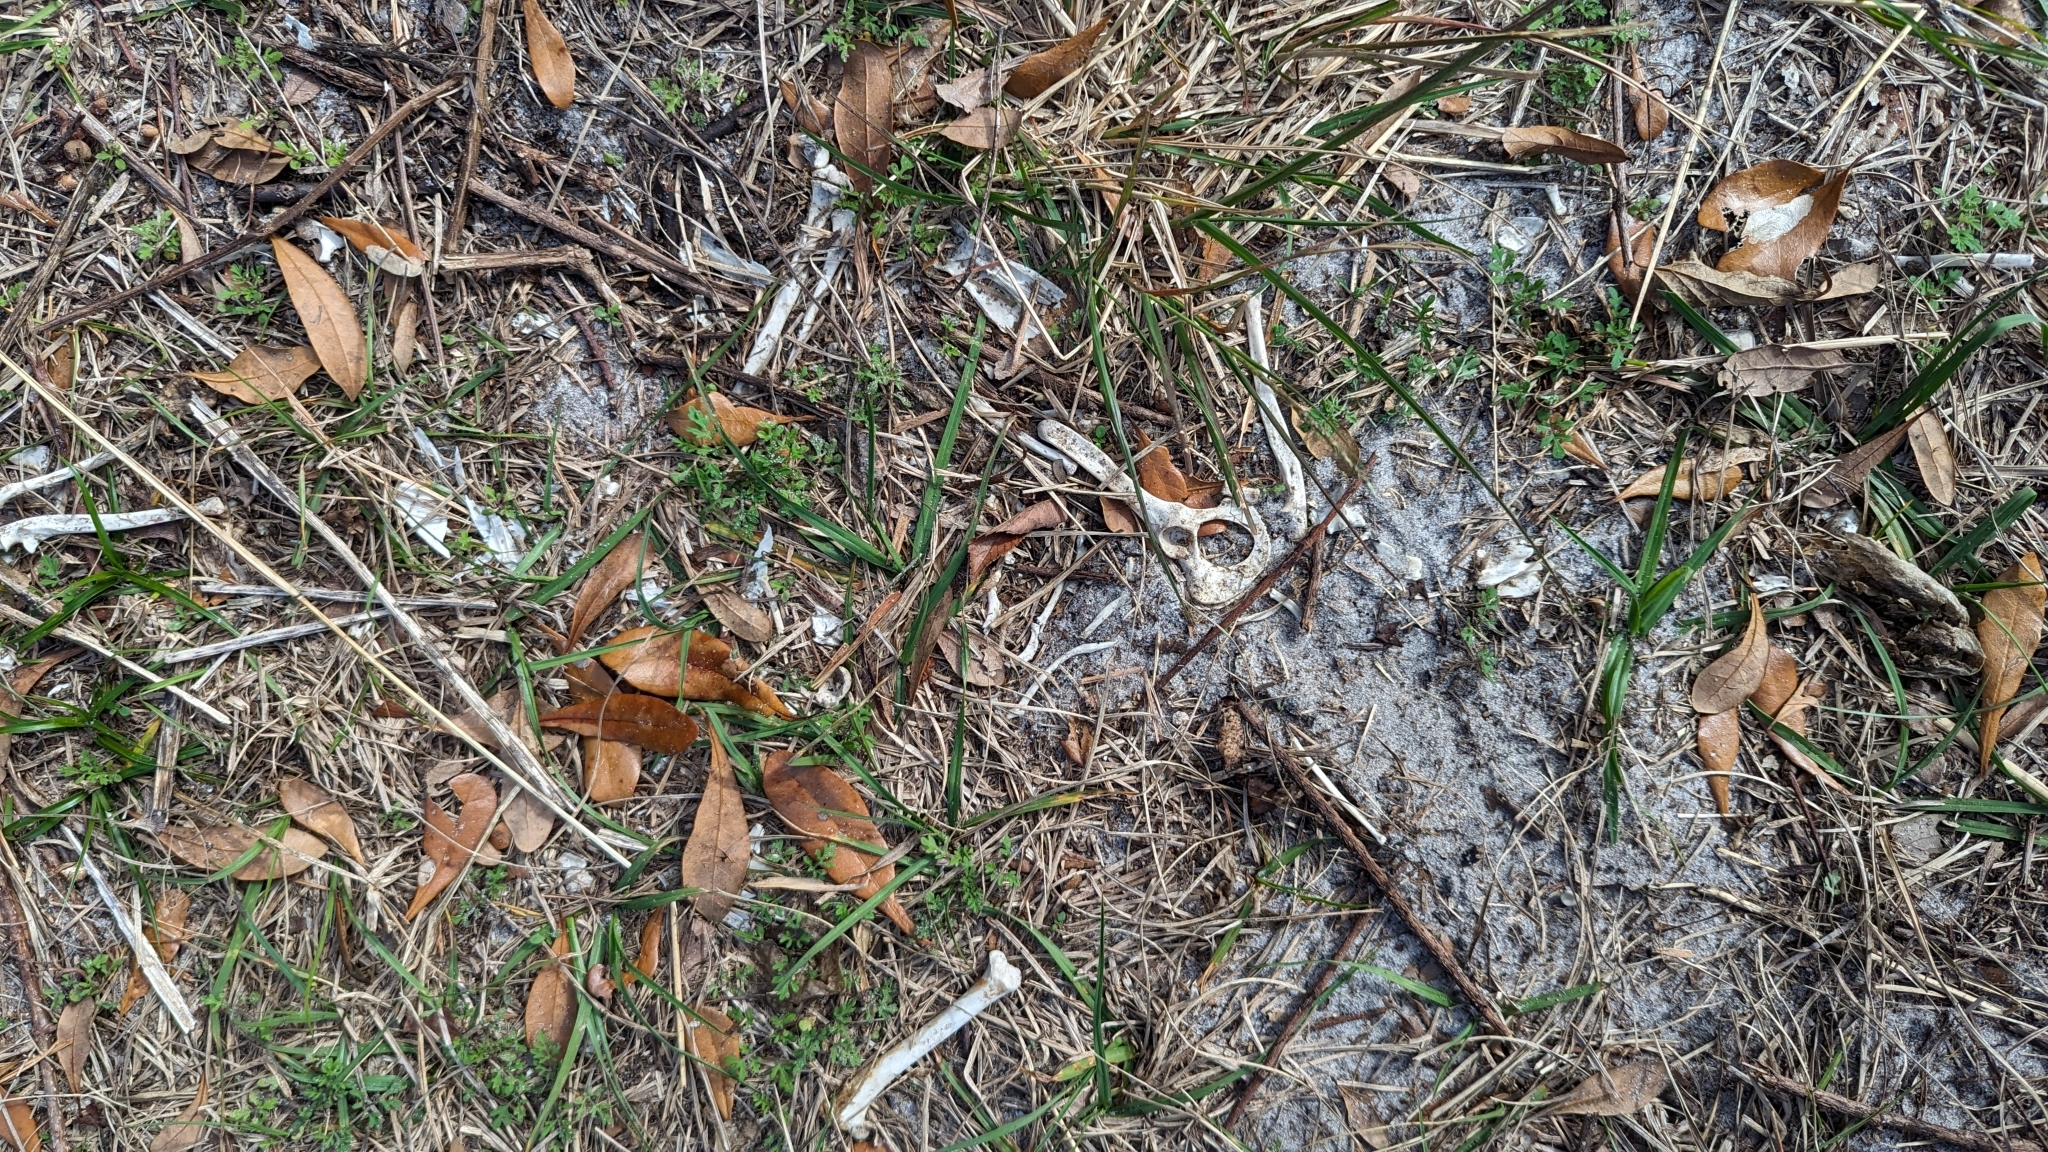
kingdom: Animalia
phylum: Chordata
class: Mammalia
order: Didelphimorphia
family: Didelphidae
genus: Didelphis
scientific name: Didelphis virginiana
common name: Virginia opossum
